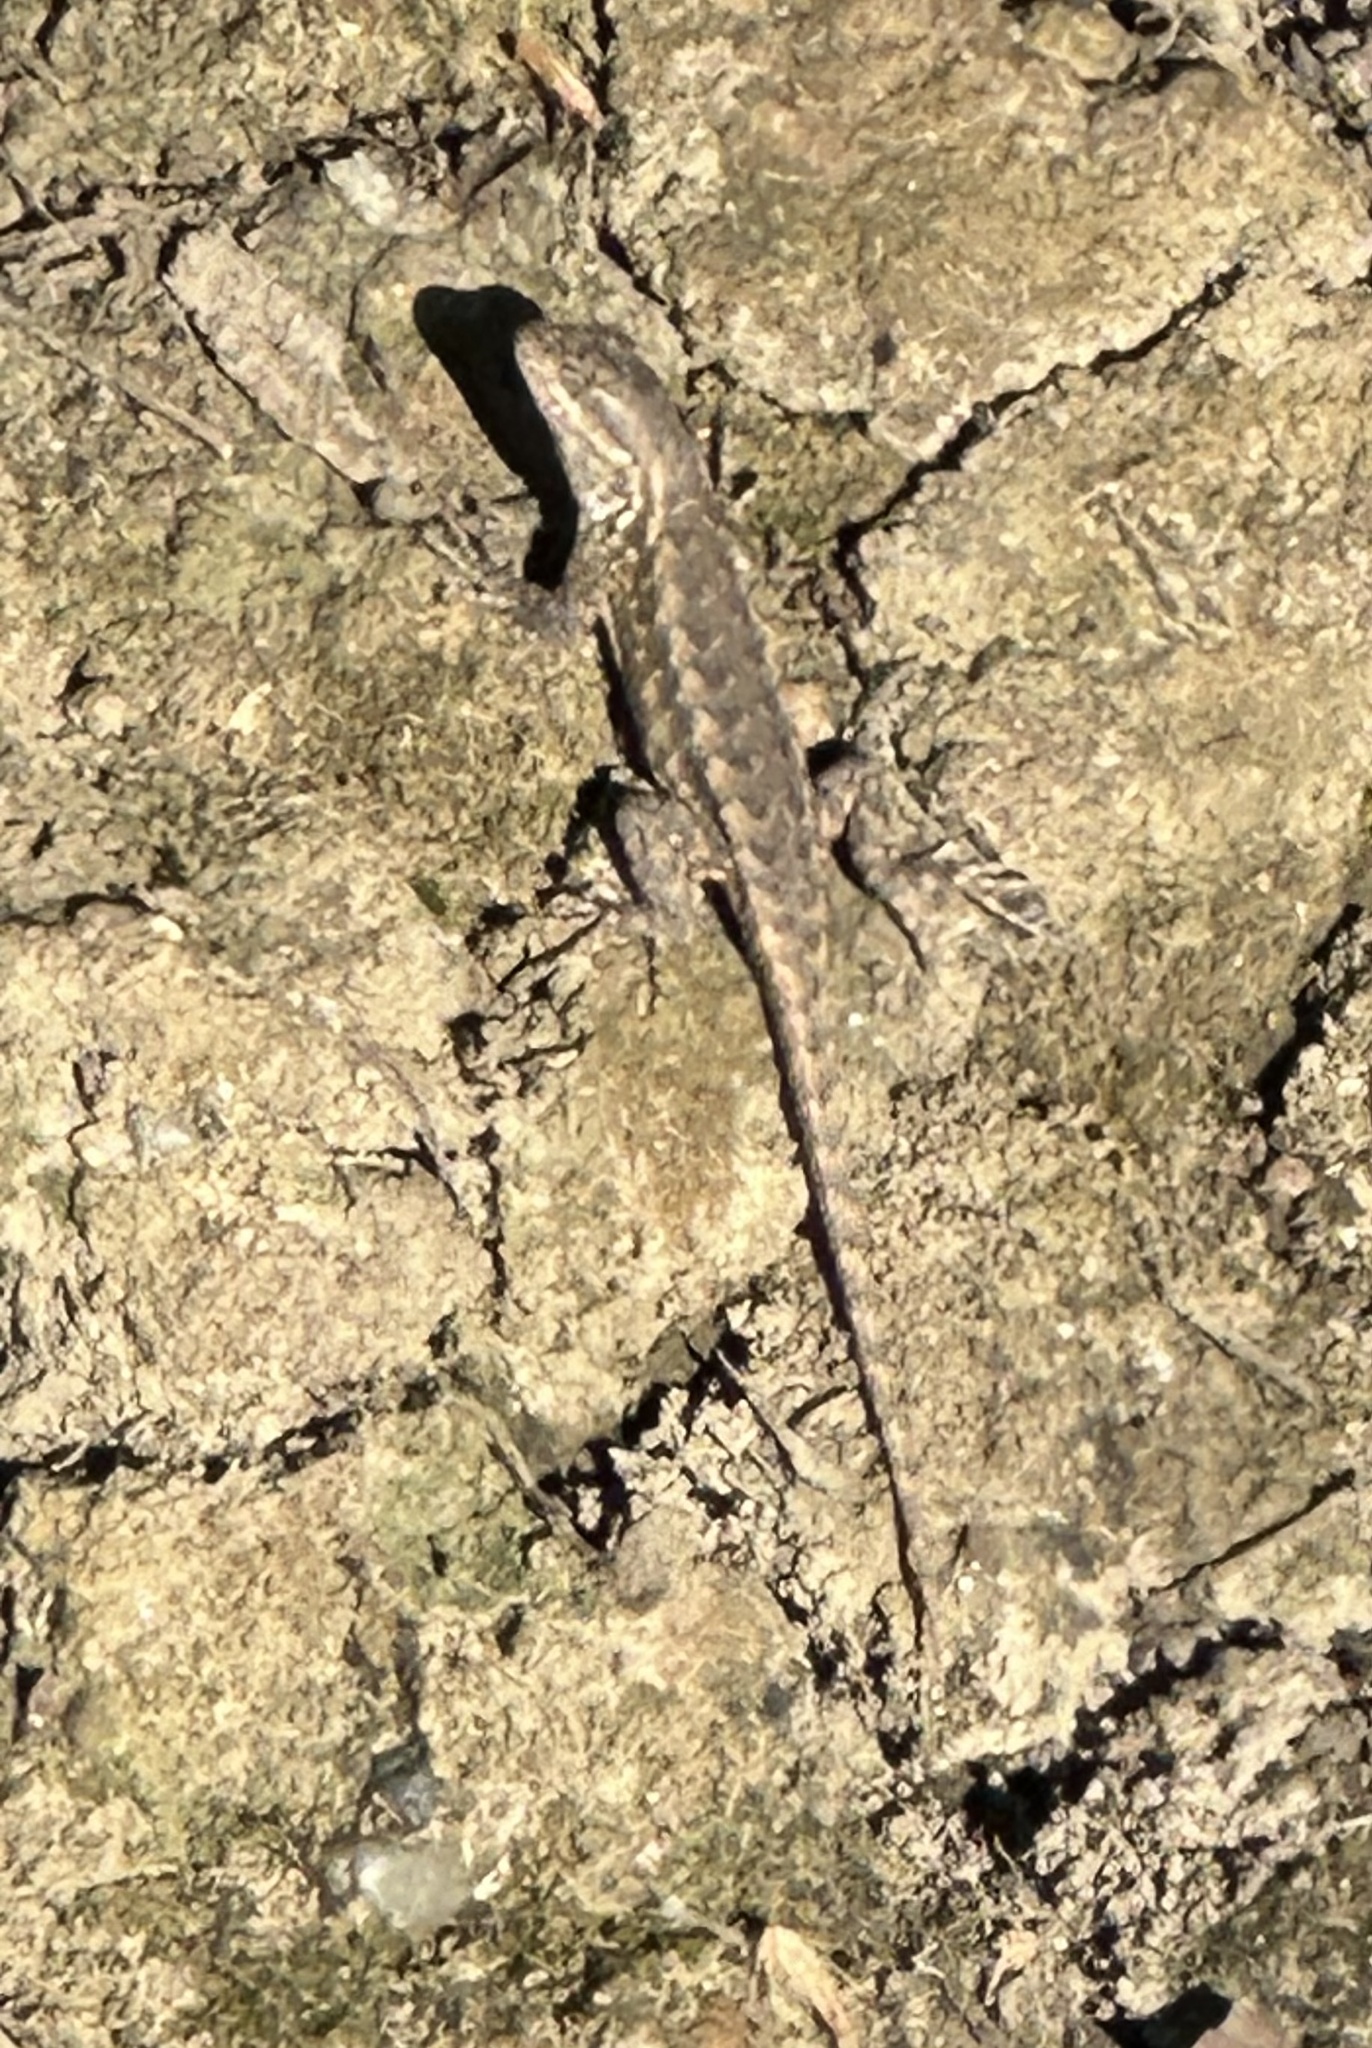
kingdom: Animalia
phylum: Chordata
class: Squamata
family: Phrynosomatidae
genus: Sceloporus
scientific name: Sceloporus occidentalis
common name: Western fence lizard
